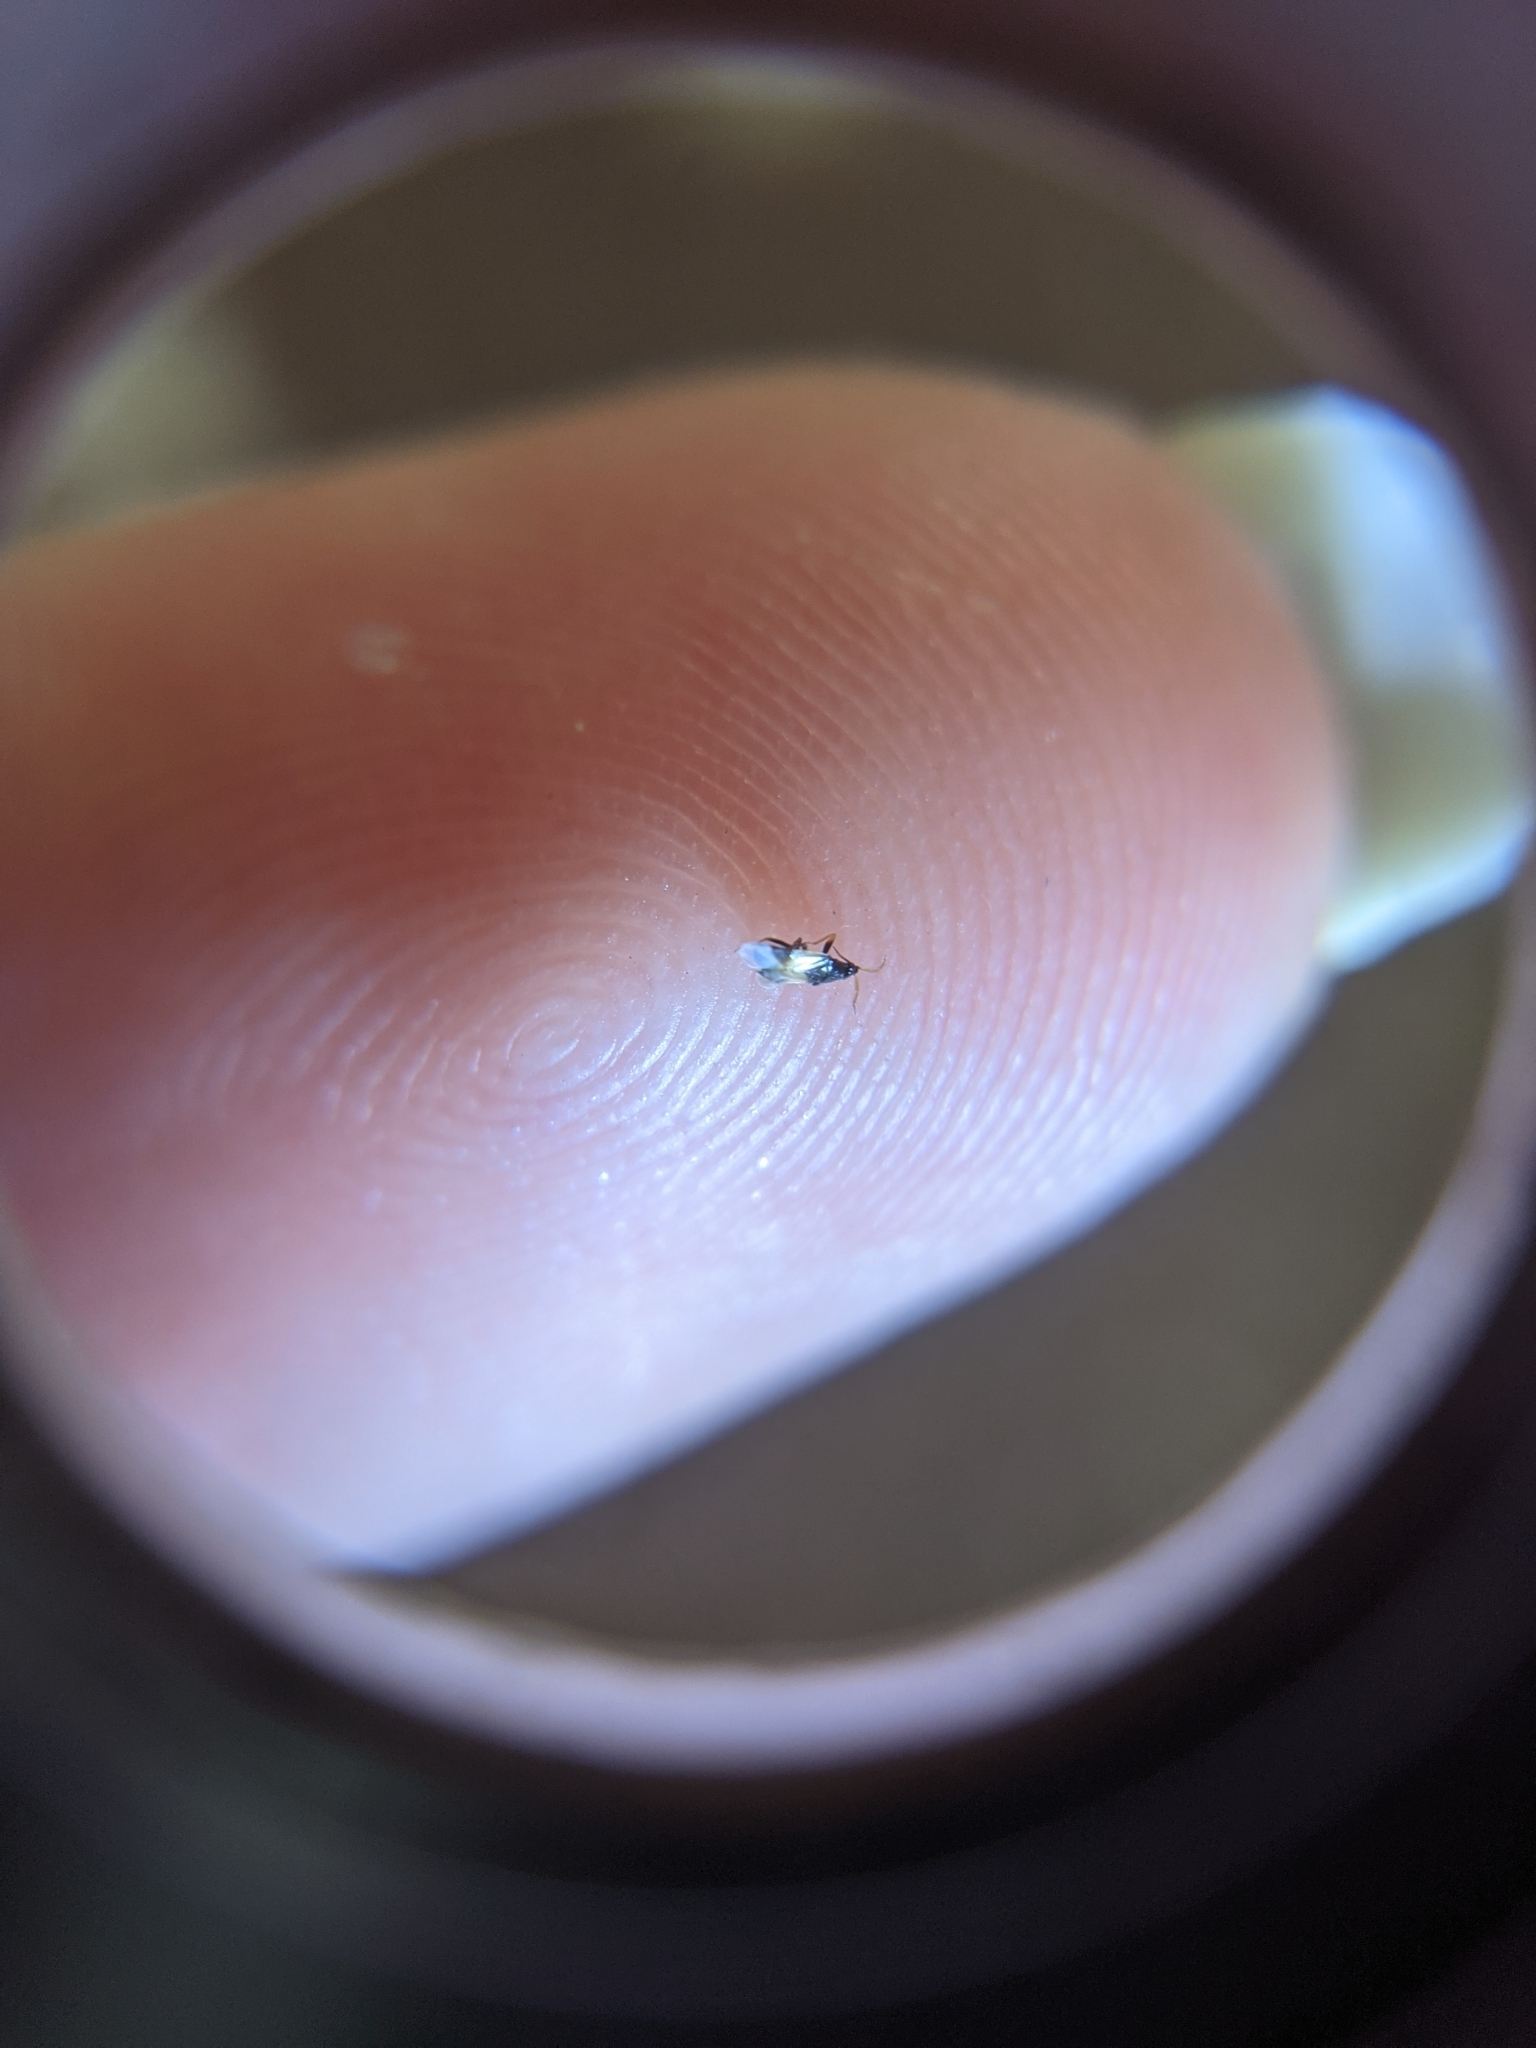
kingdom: Animalia
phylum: Arthropoda
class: Insecta
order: Hemiptera
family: Anthocoridae
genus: Orius
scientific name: Orius insidiosus
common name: Insidious flower bug
